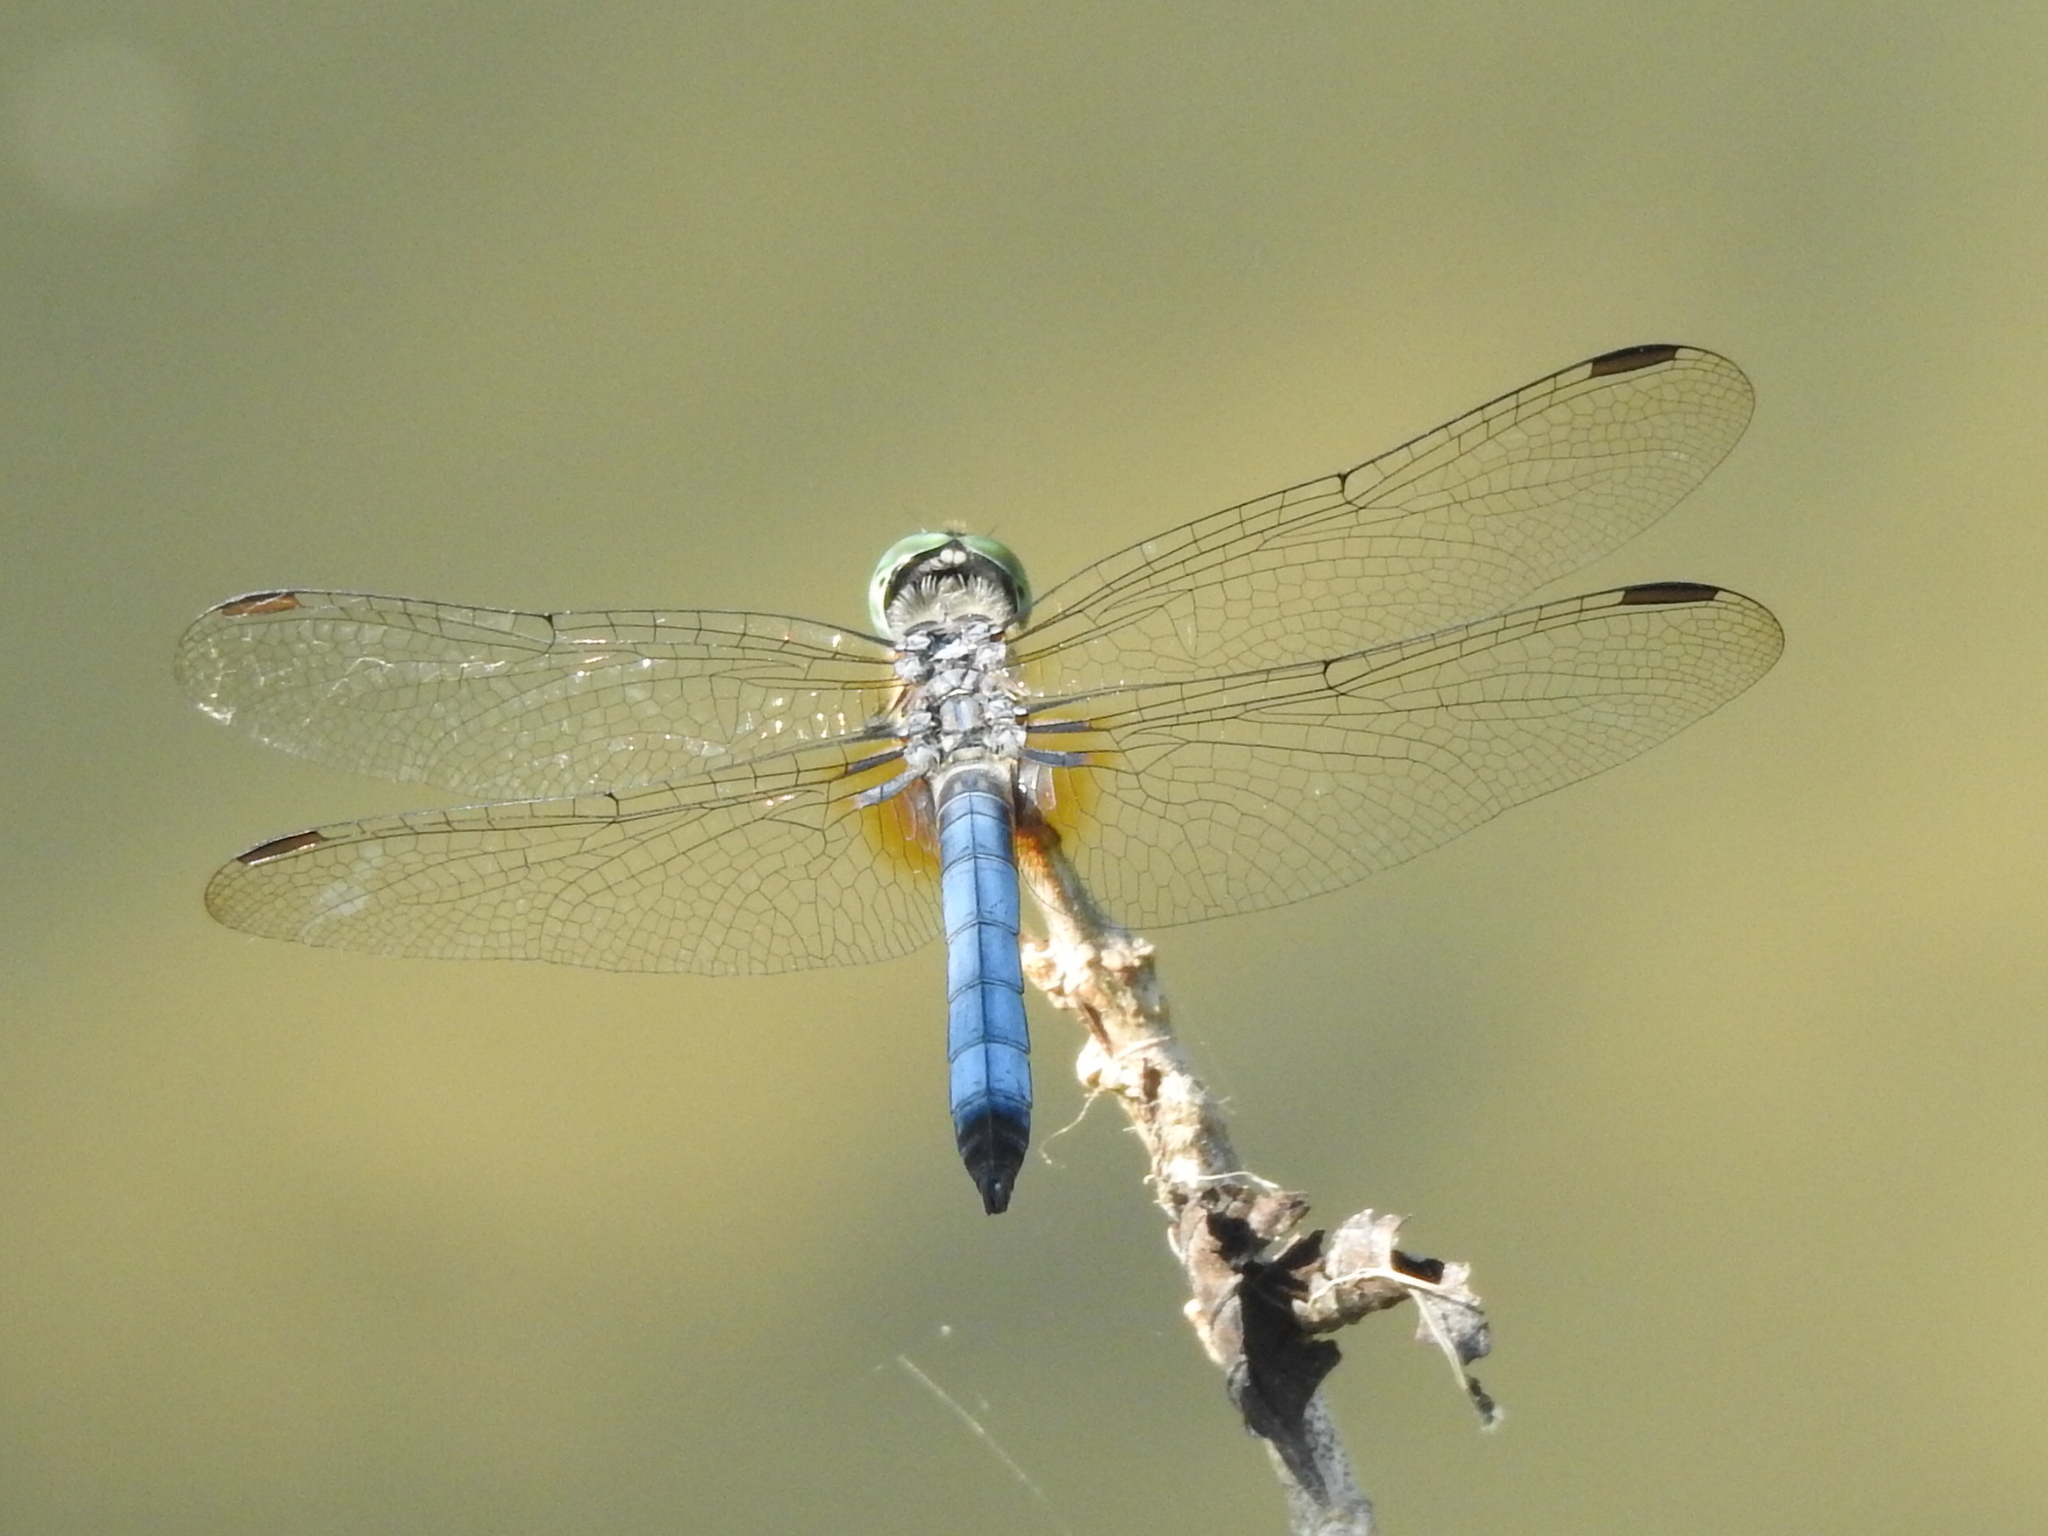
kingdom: Animalia
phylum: Arthropoda
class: Insecta
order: Odonata
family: Libellulidae
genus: Pachydiplax
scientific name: Pachydiplax longipennis
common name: Blue dasher
